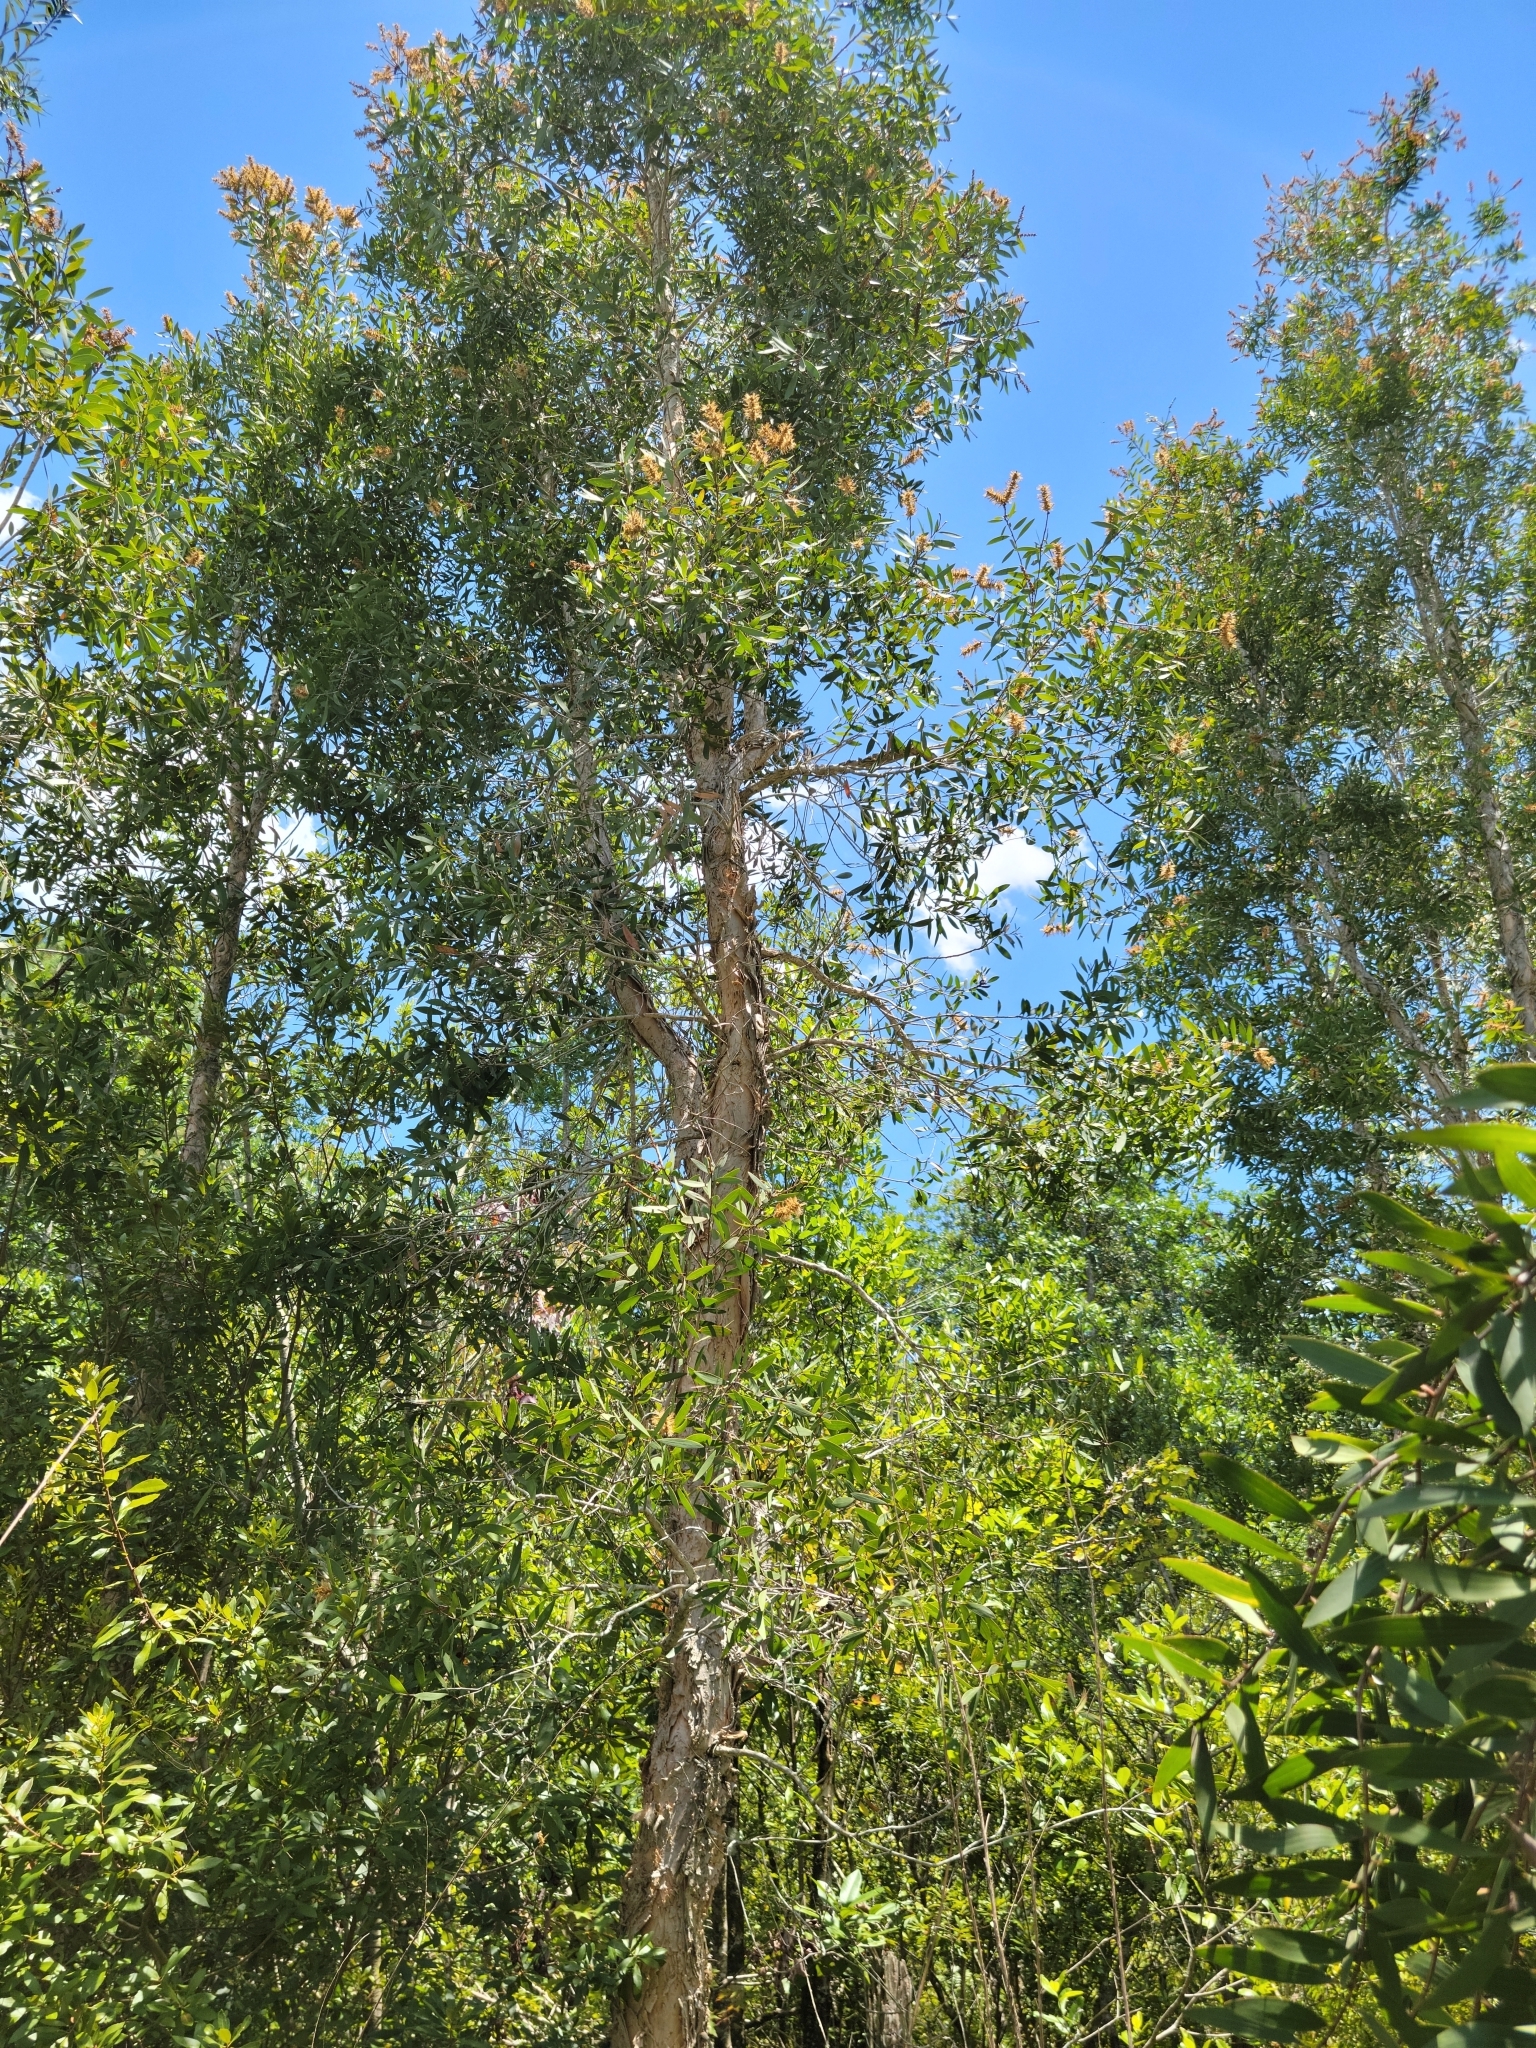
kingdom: Plantae
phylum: Tracheophyta
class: Magnoliopsida
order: Myrtales
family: Myrtaceae
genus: Melaleuca
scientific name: Melaleuca quinquenervia
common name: Punktree
